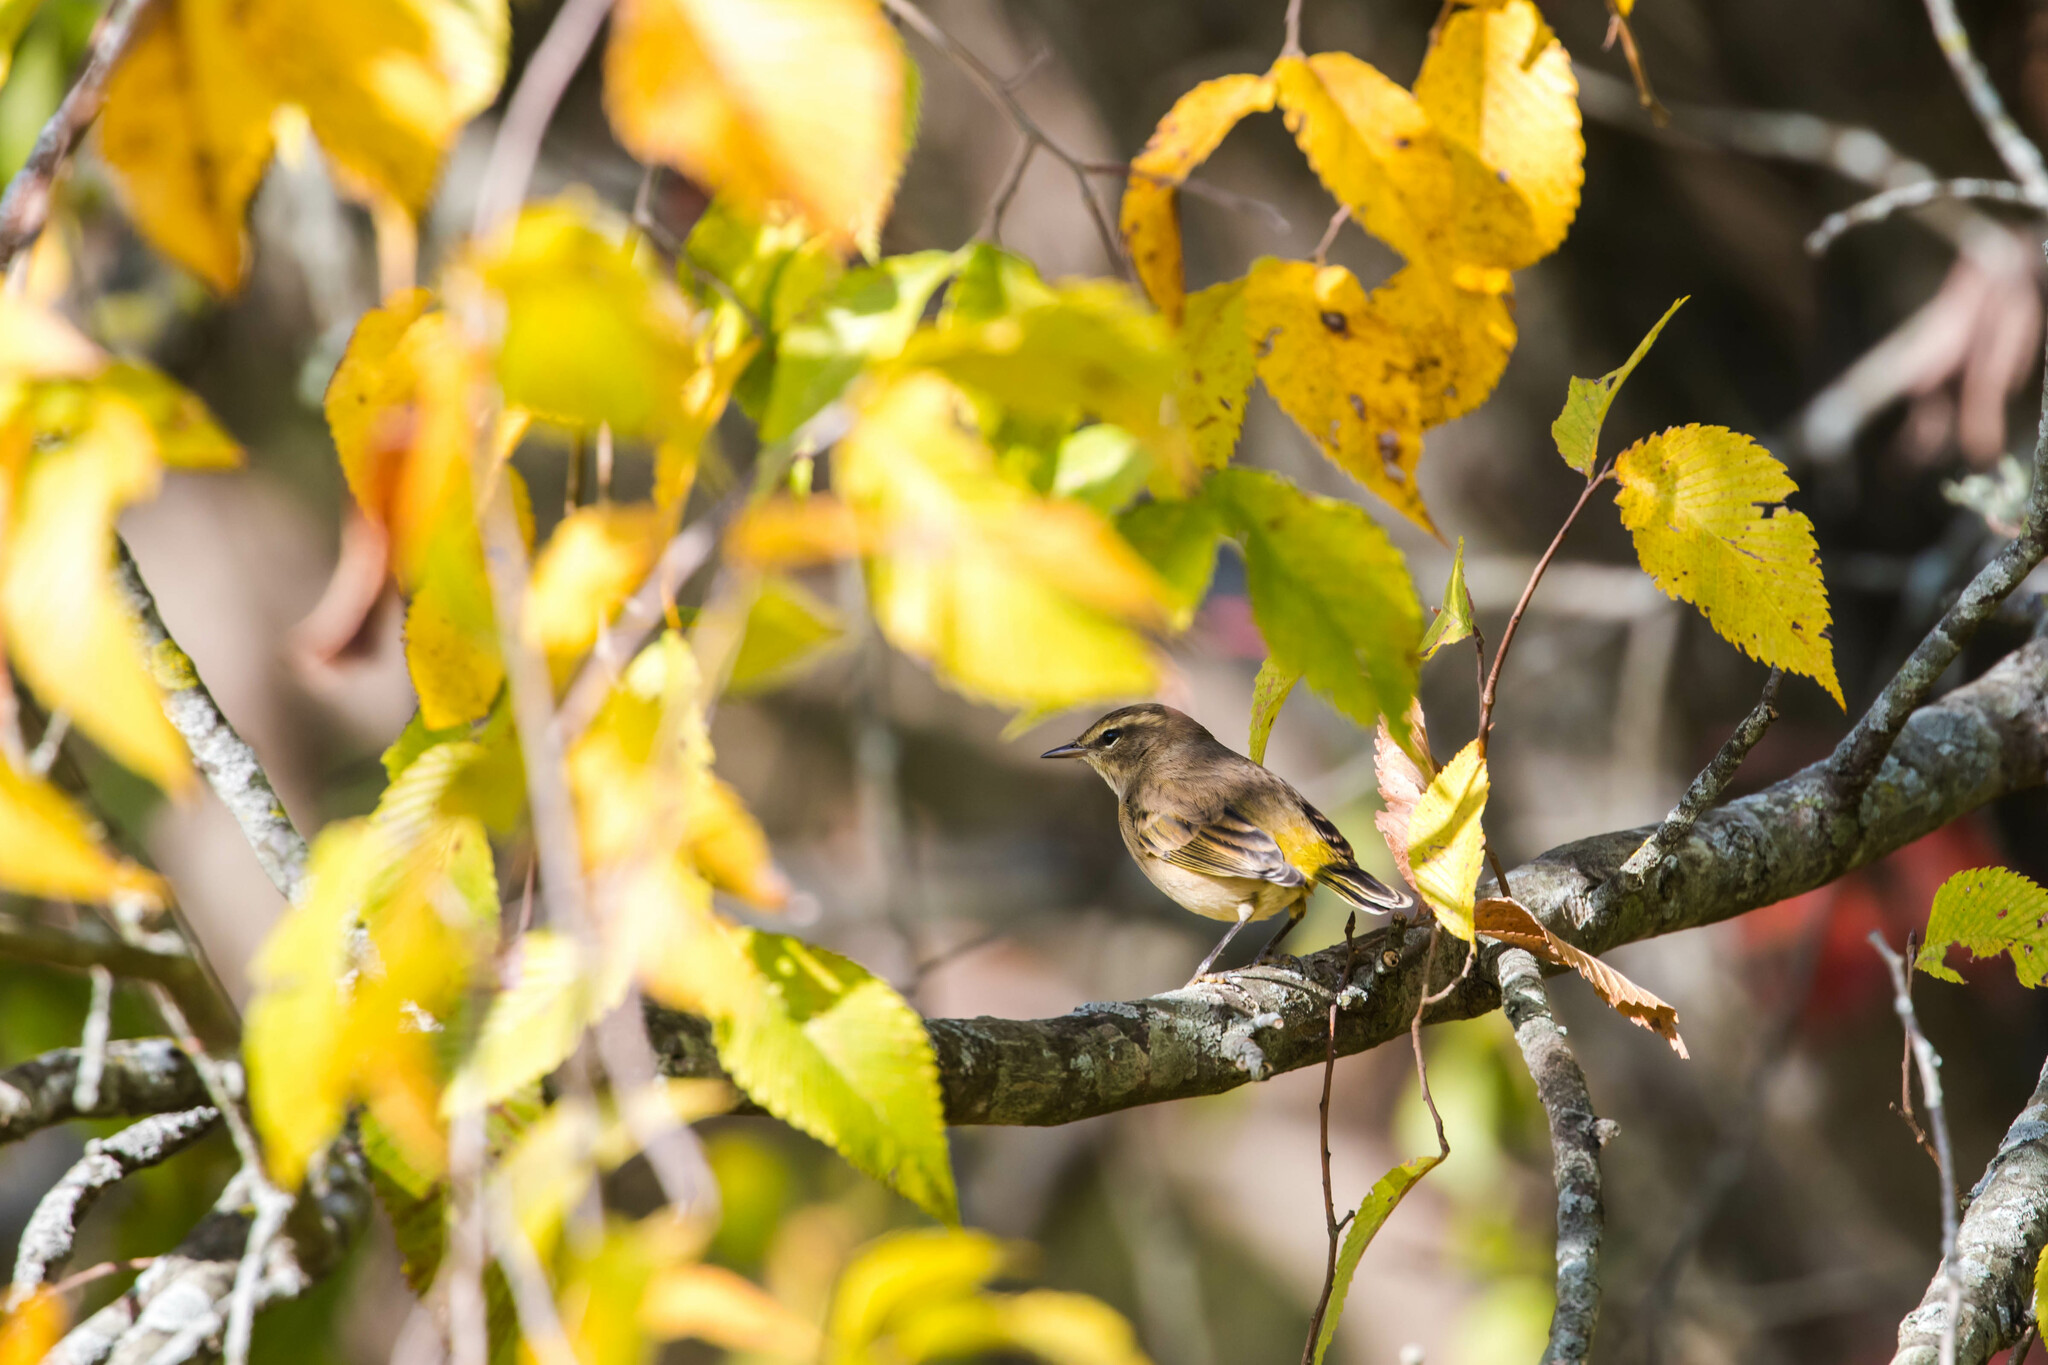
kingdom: Animalia
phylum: Chordata
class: Aves
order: Passeriformes
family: Parulidae
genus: Setophaga
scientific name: Setophaga palmarum
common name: Palm warbler
